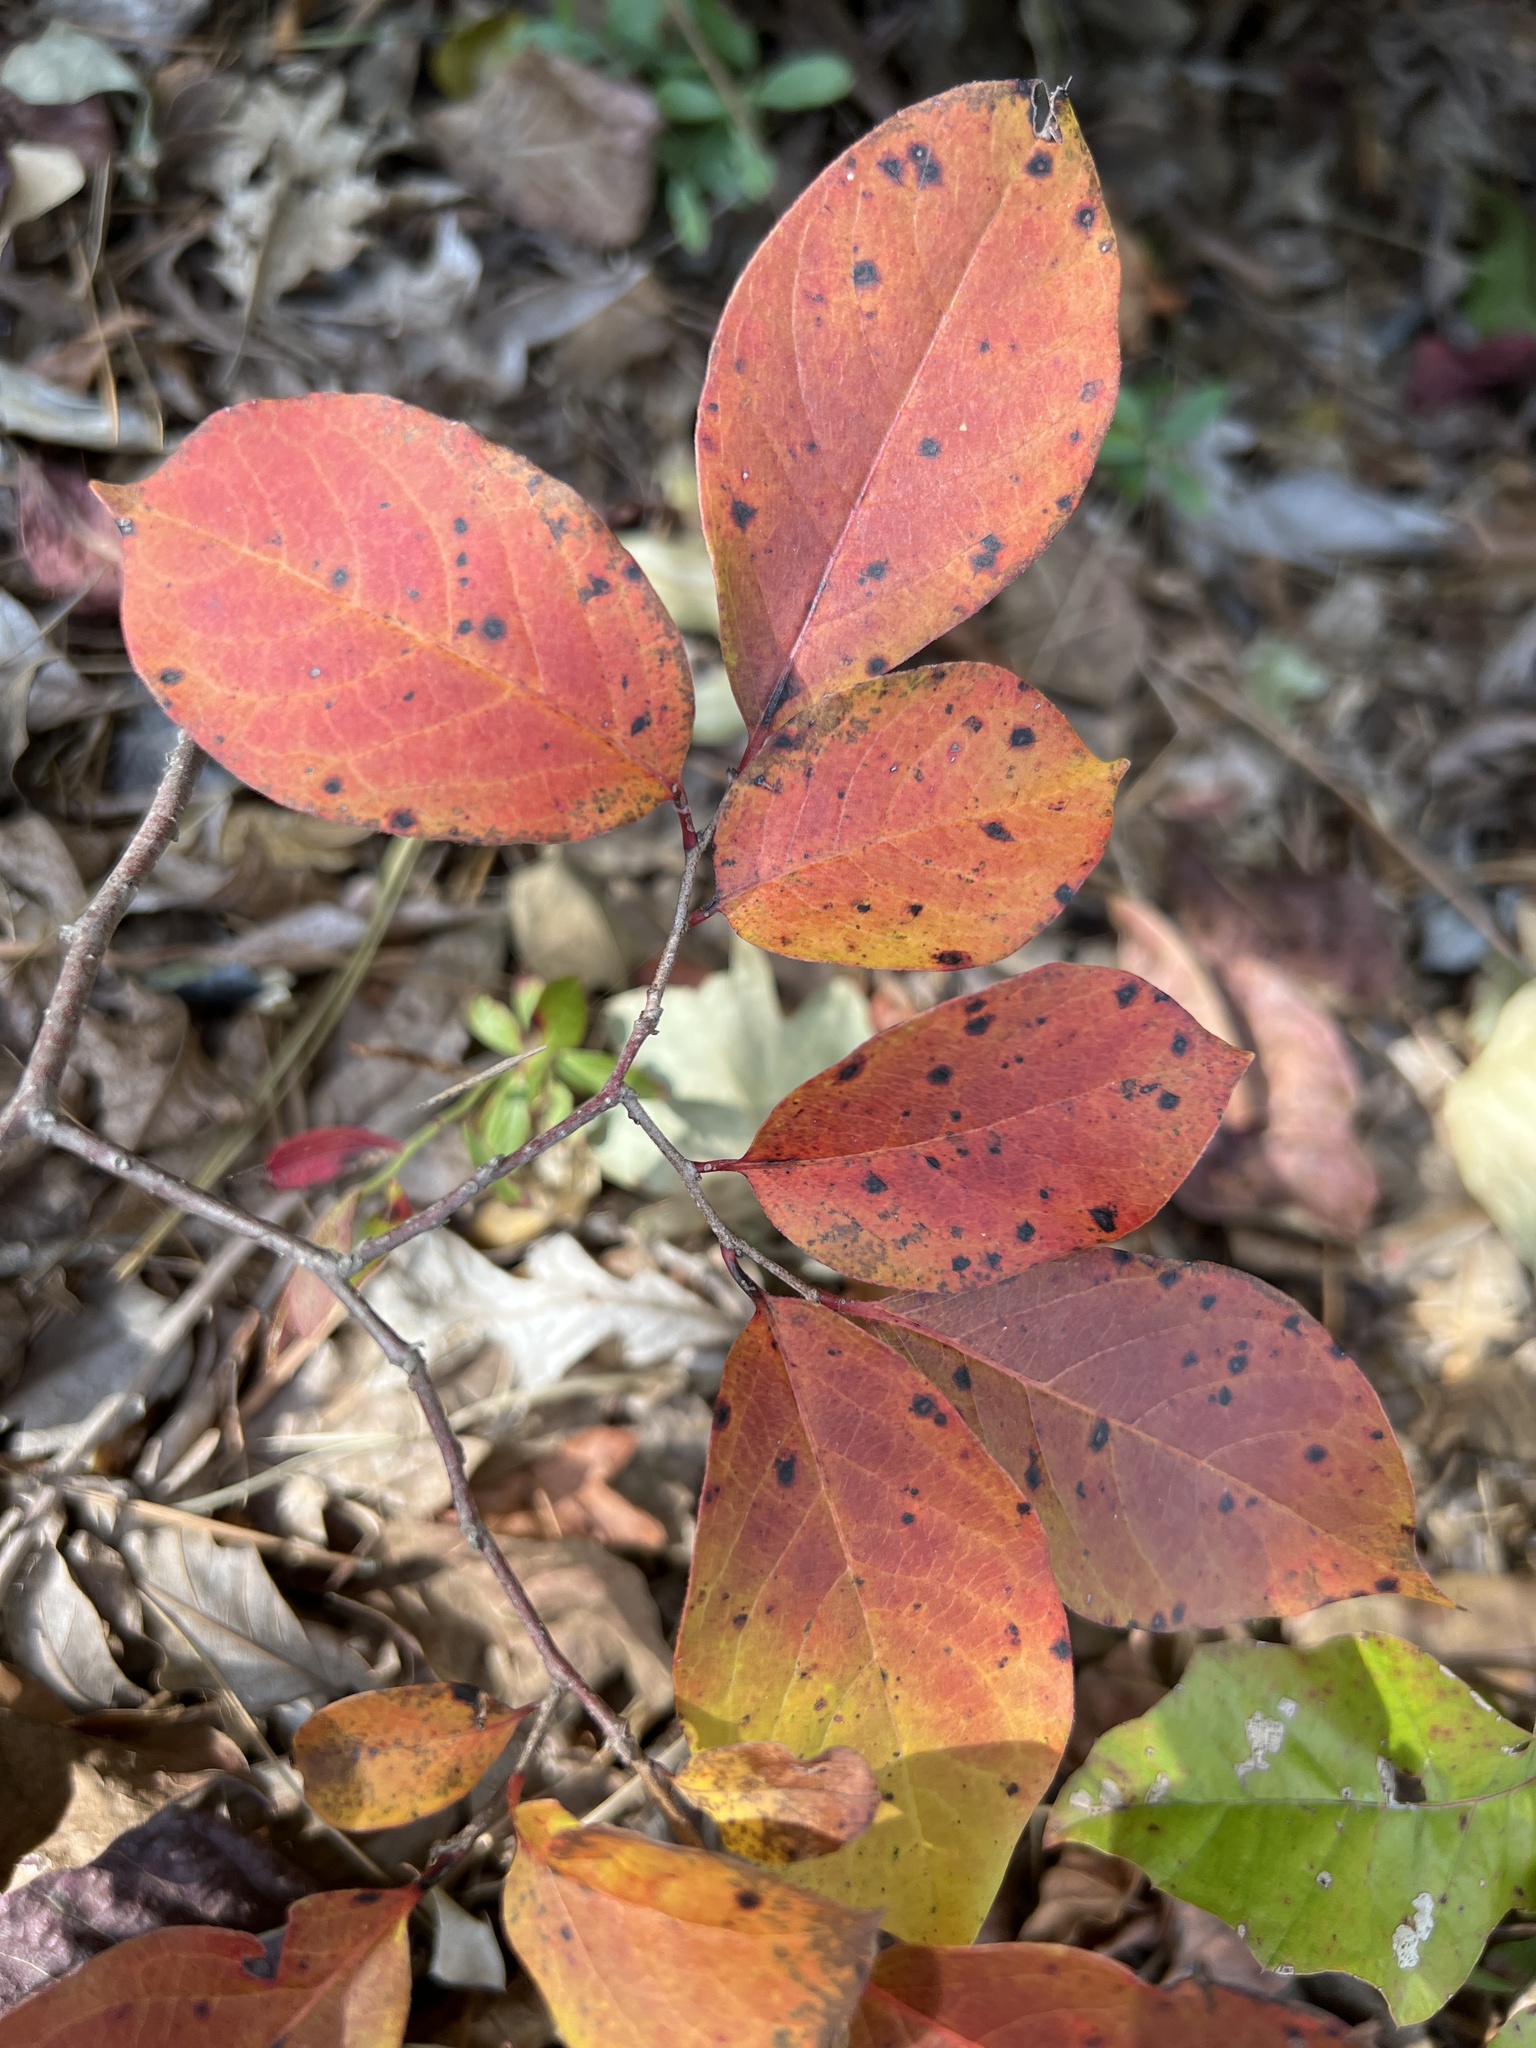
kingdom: Plantae
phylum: Tracheophyta
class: Magnoliopsida
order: Ericales
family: Ebenaceae
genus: Diospyros
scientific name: Diospyros virginiana
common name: Persimmon
